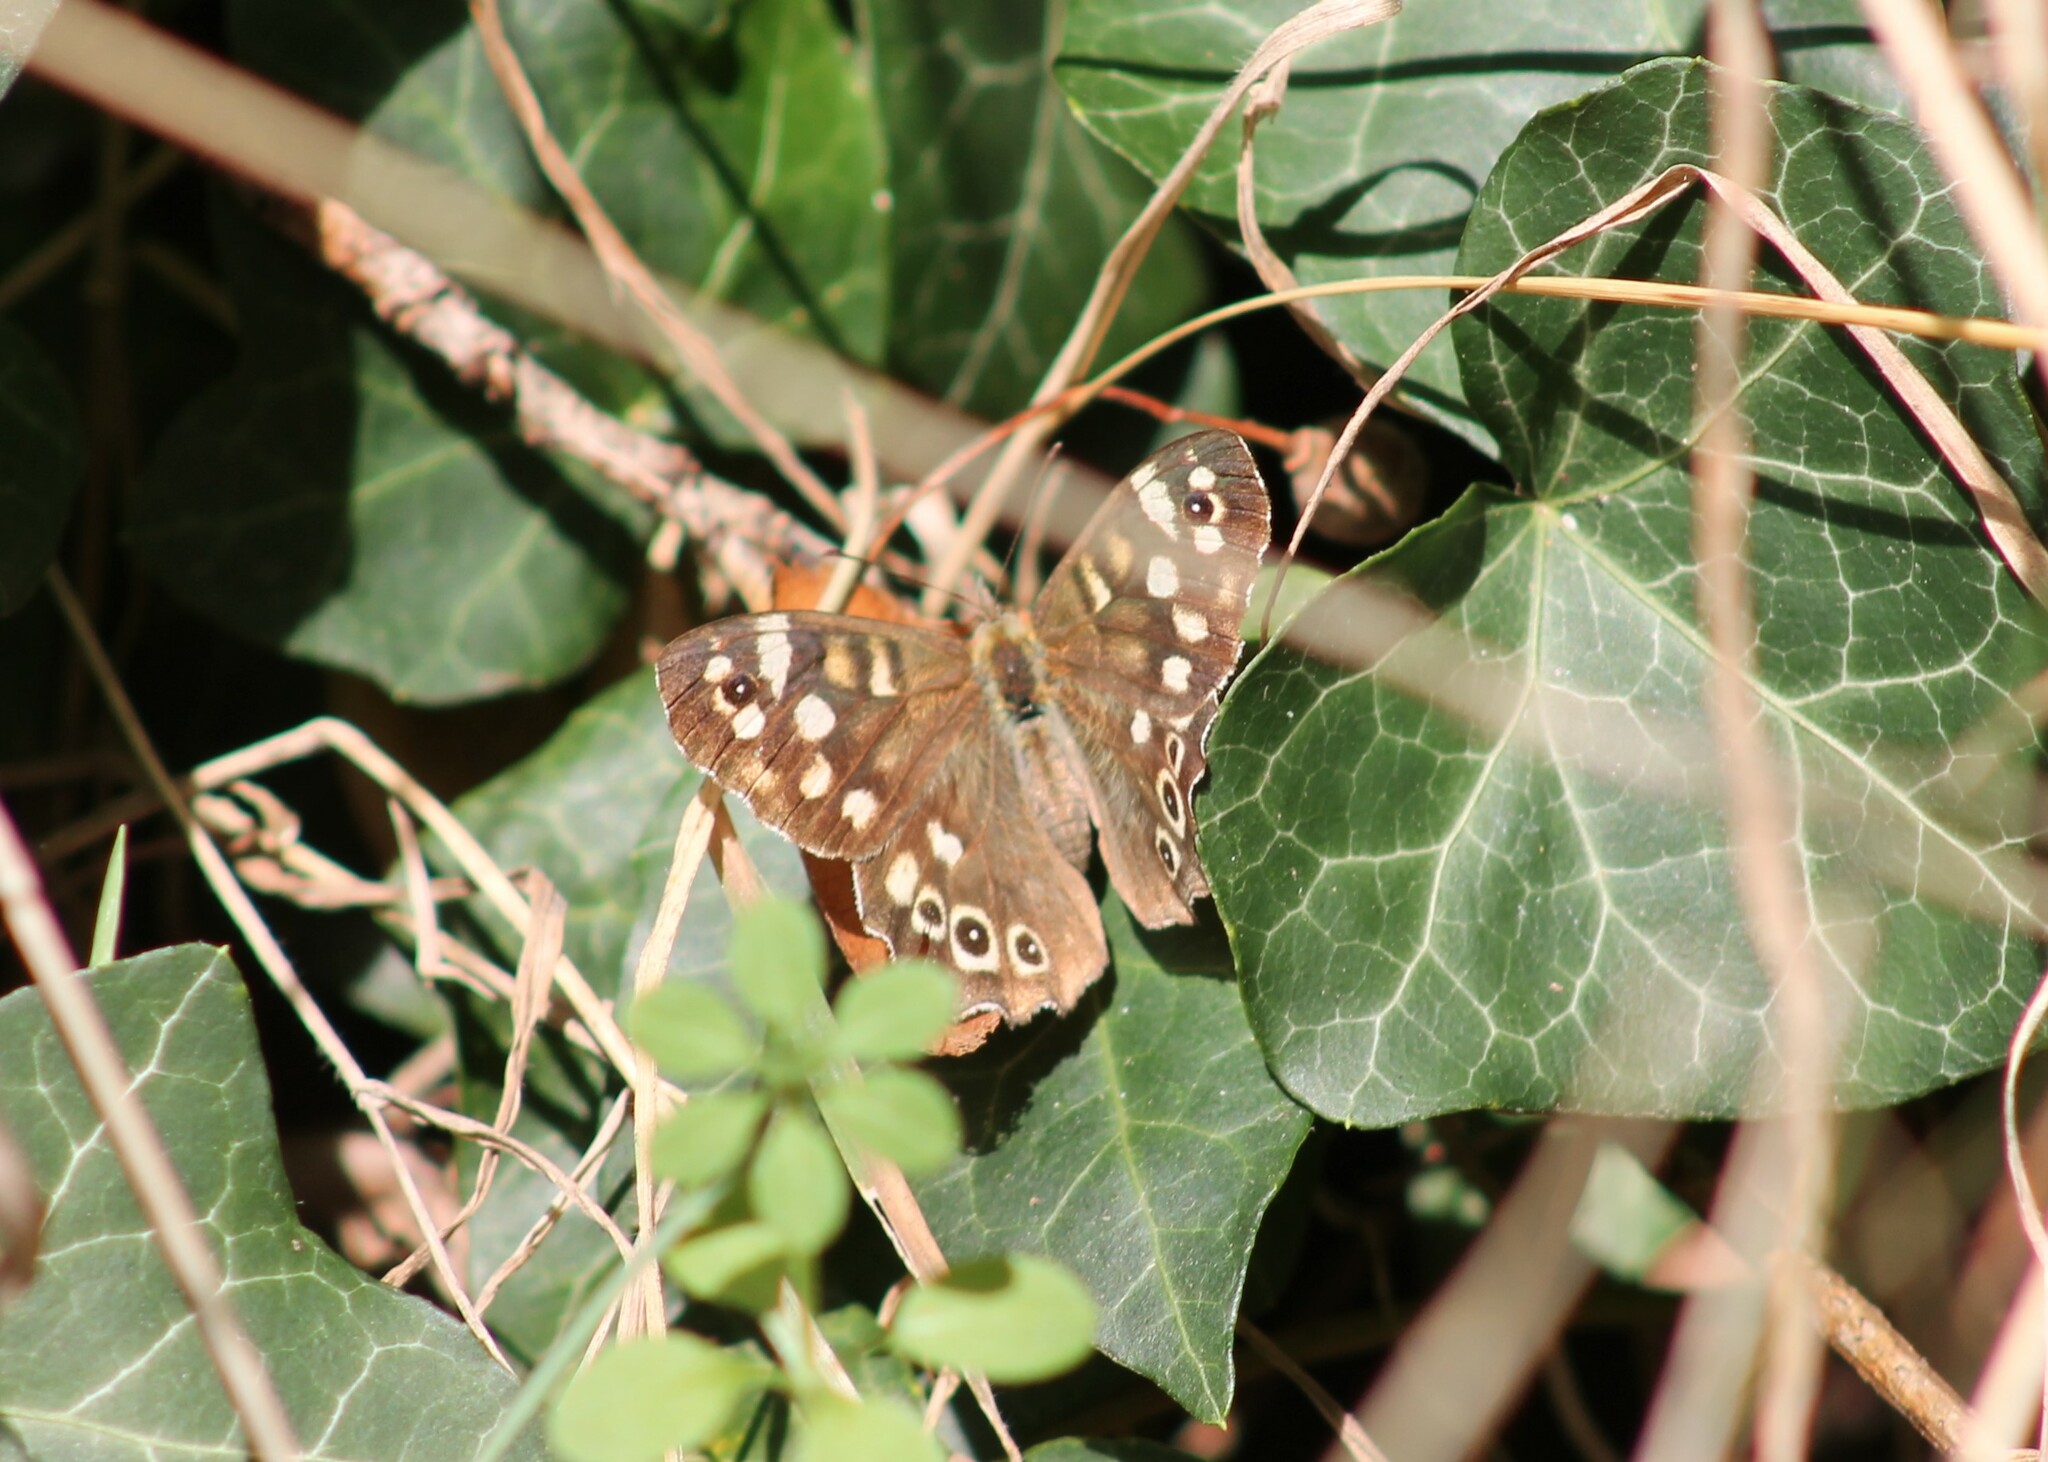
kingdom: Animalia
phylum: Arthropoda
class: Insecta
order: Lepidoptera
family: Nymphalidae
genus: Pararge
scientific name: Pararge aegeria
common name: Speckled wood
